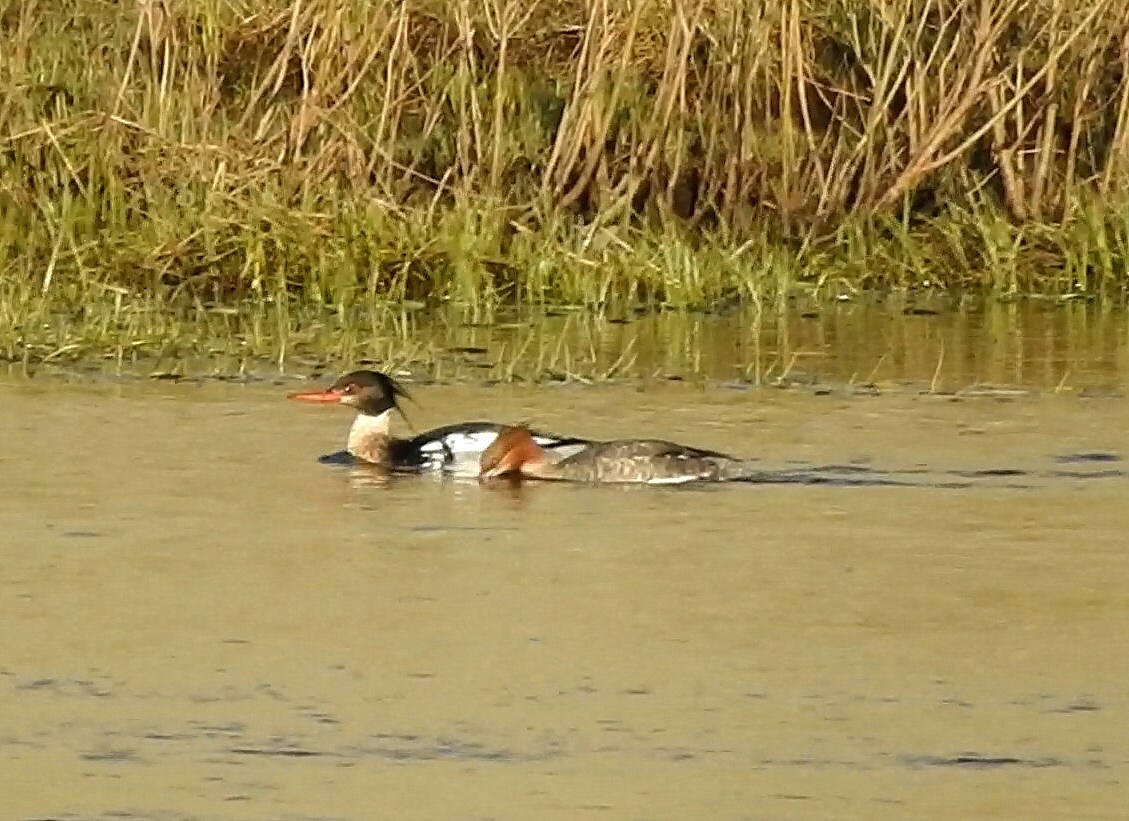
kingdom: Animalia
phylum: Chordata
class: Aves
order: Anseriformes
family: Anatidae
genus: Mergus
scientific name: Mergus serrator
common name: Red-breasted merganser
